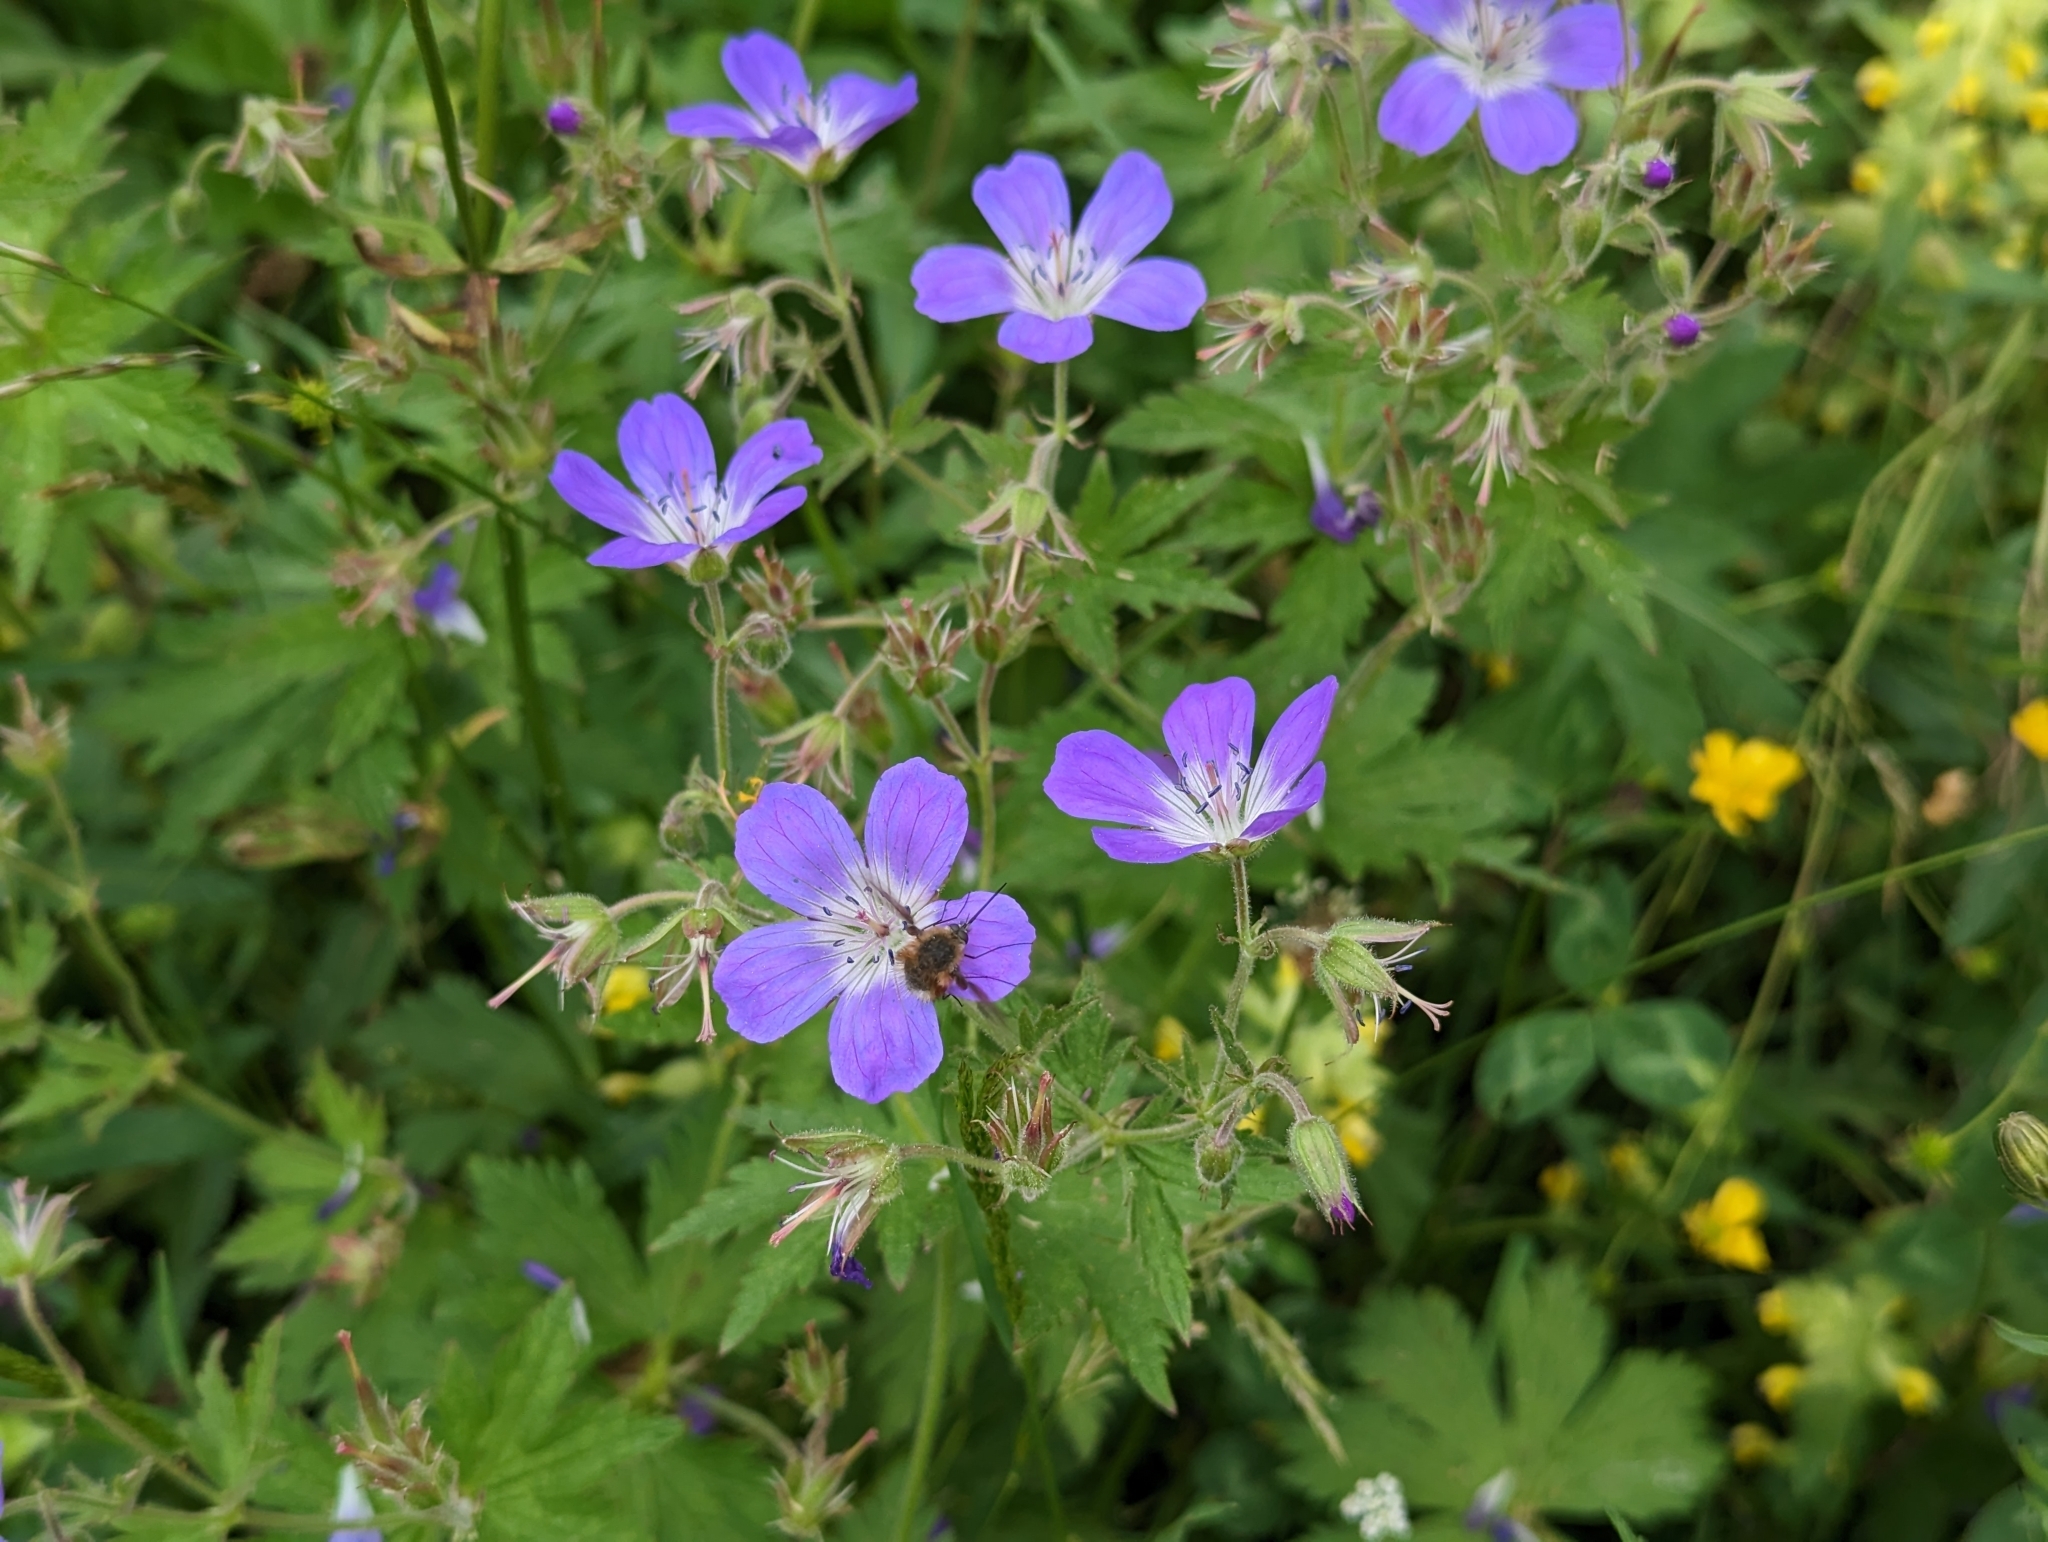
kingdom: Plantae
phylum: Tracheophyta
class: Magnoliopsida
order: Geraniales
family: Geraniaceae
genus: Geranium
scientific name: Geranium sylvaticum
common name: Wood crane's-bill
